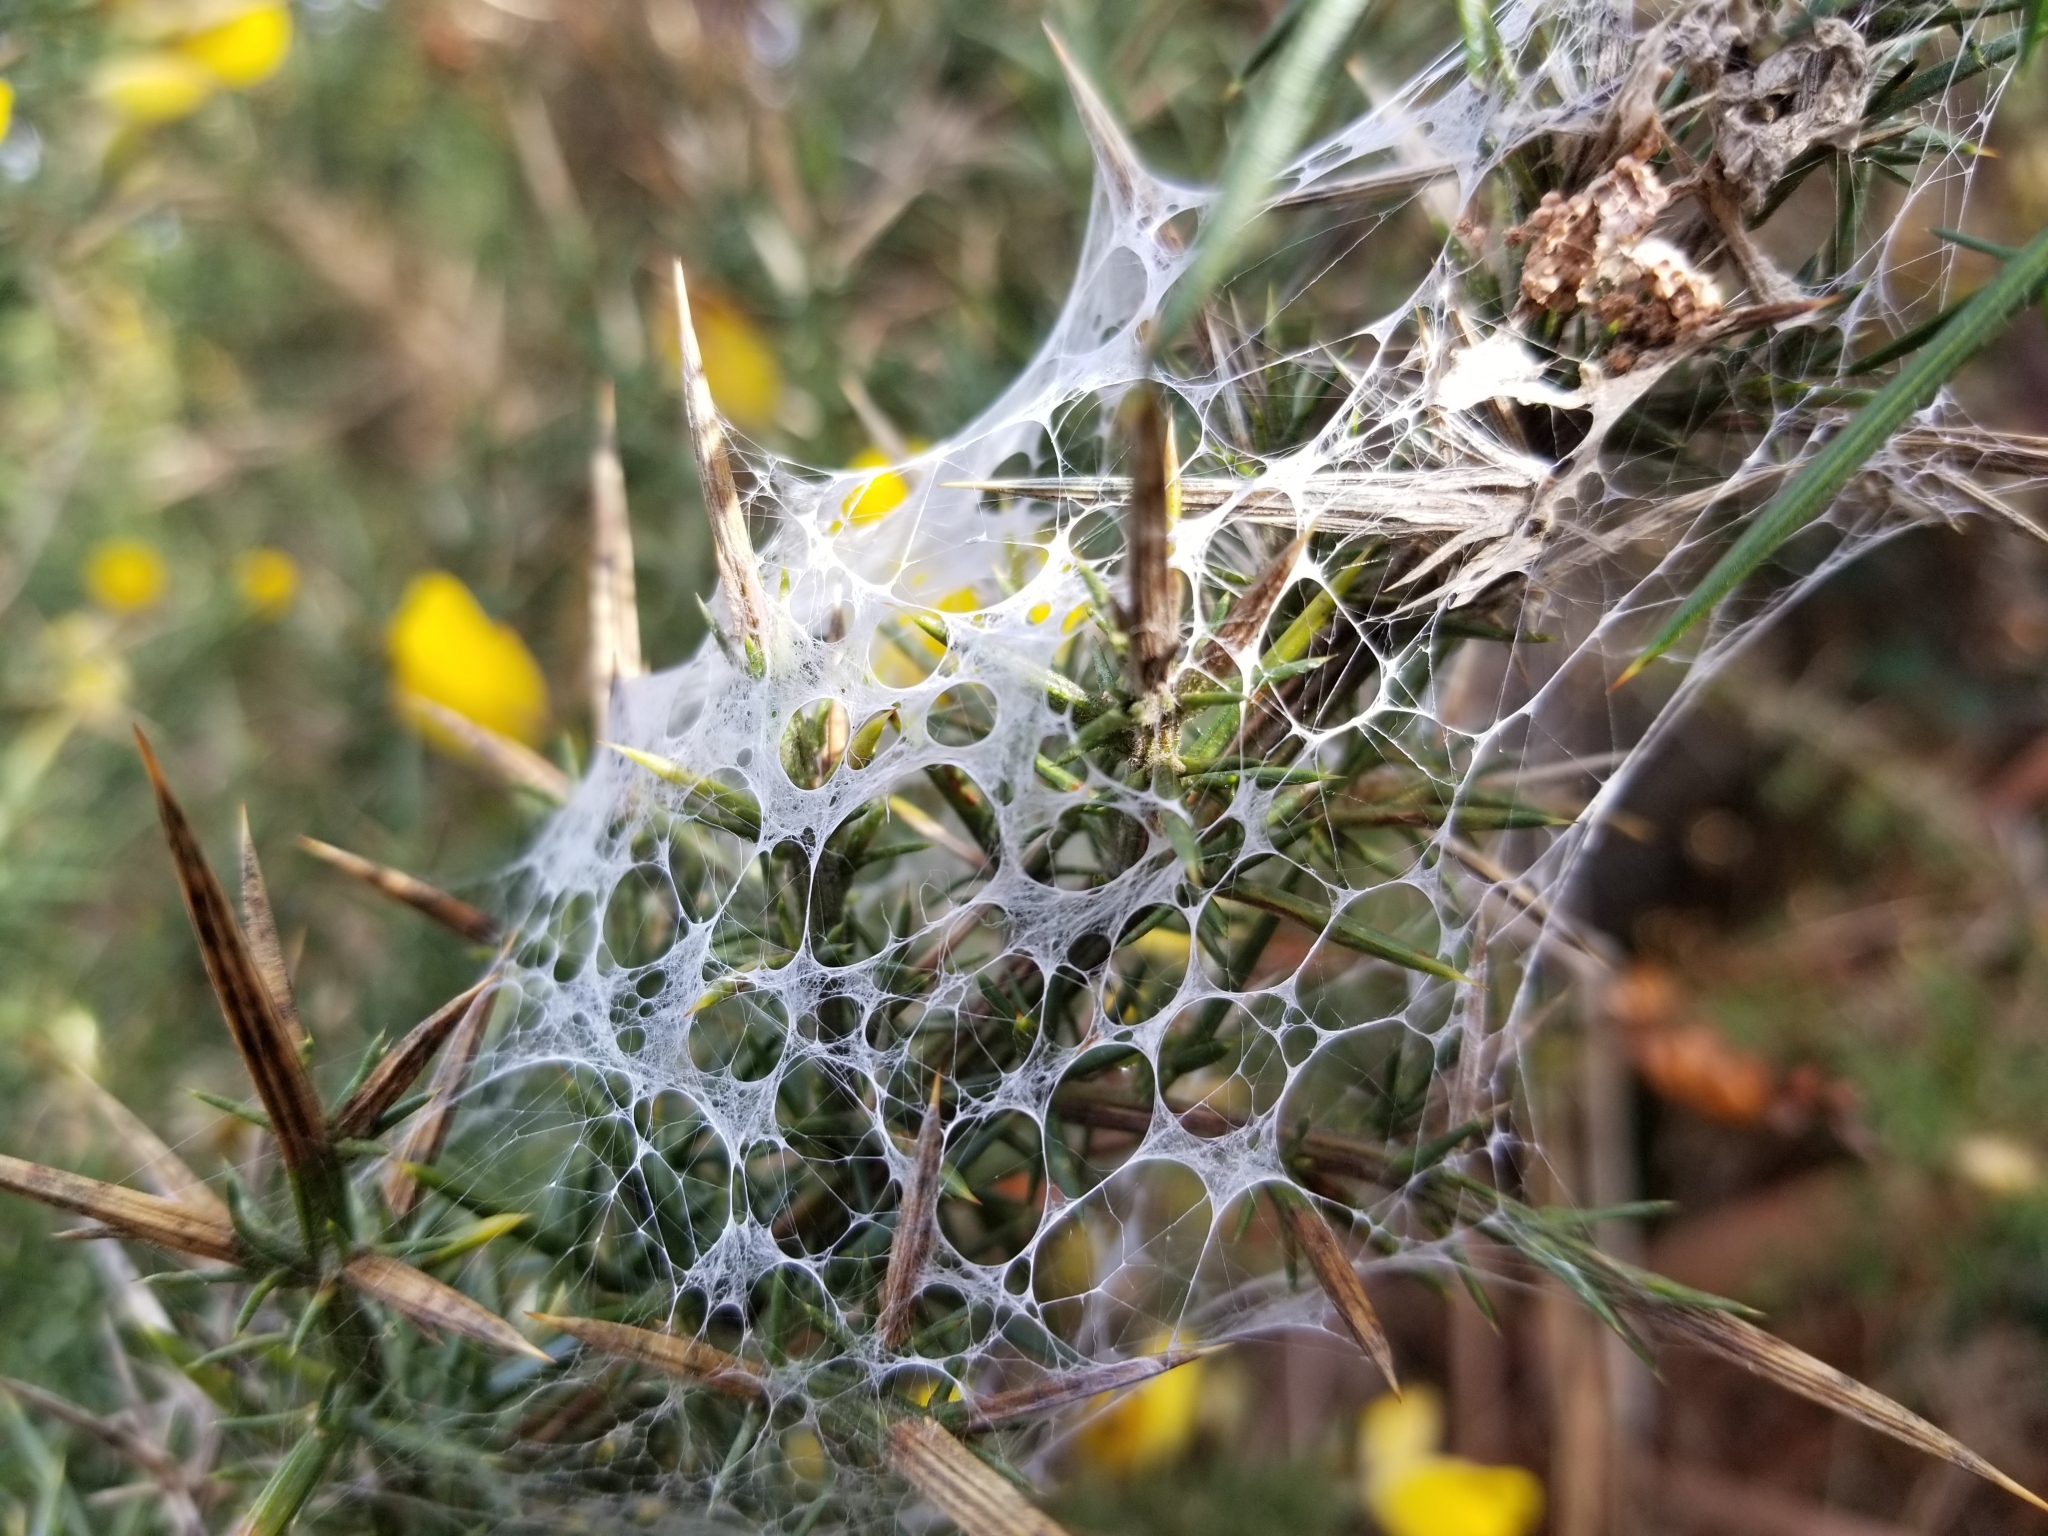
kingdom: Animalia
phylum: Arthropoda
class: Arachnida
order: Araneae
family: Pisauridae
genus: Dolomedes
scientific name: Dolomedes minor
